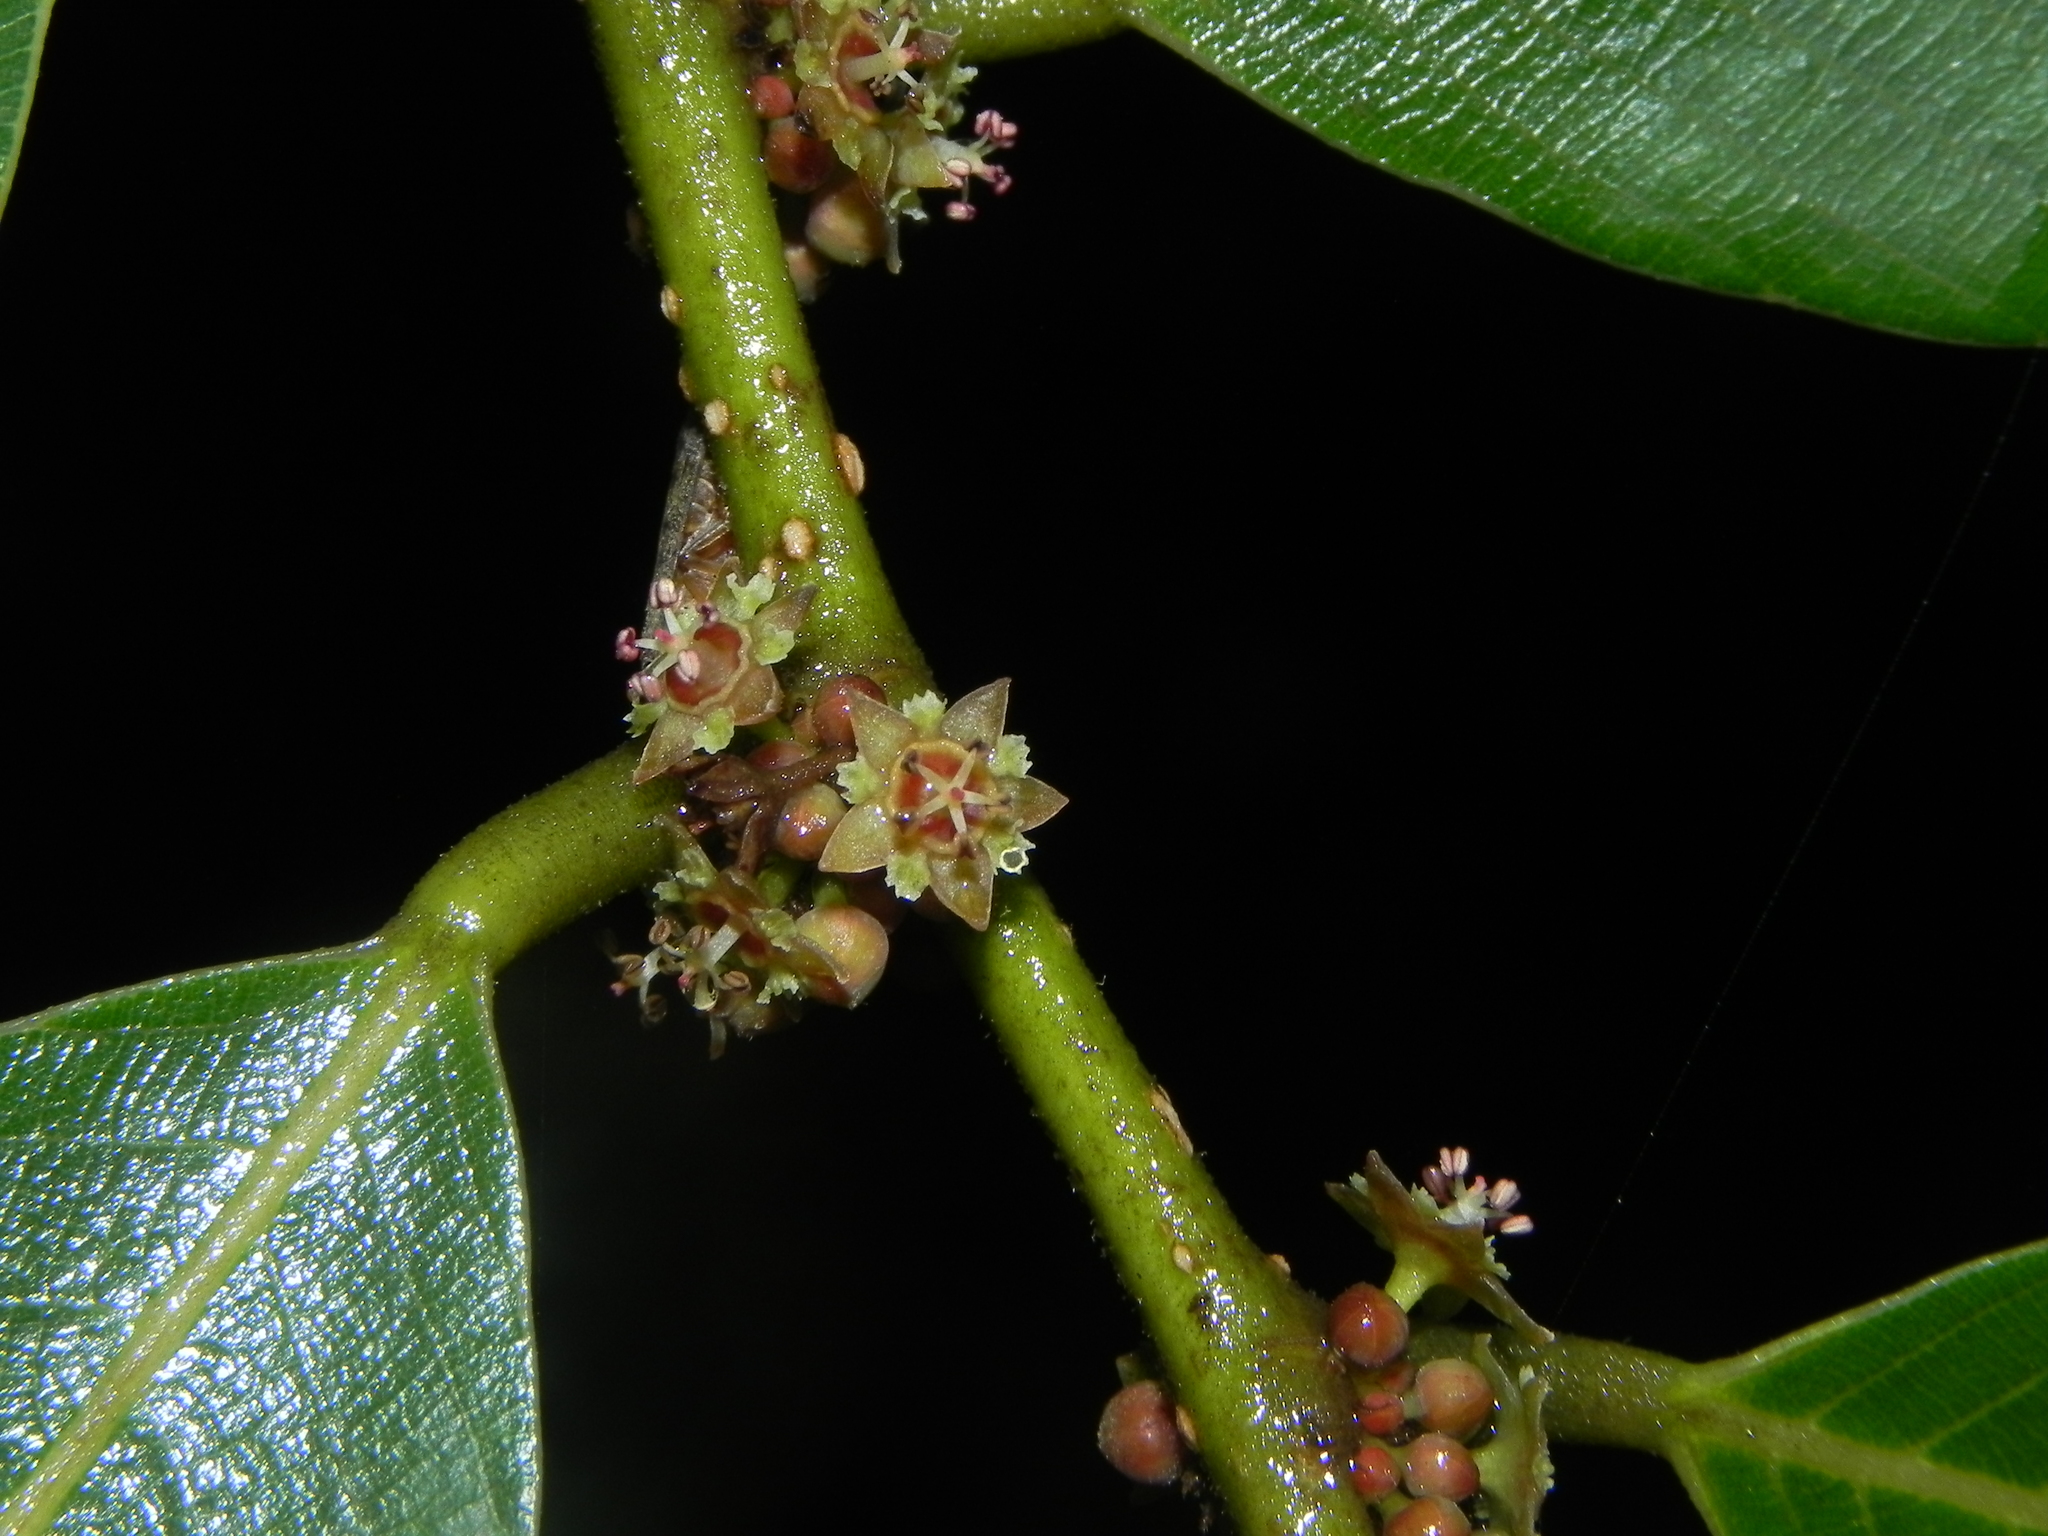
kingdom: Plantae
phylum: Tracheophyta
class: Magnoliopsida
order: Malpighiales
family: Phyllanthaceae
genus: Bridelia
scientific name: Bridelia retusa
